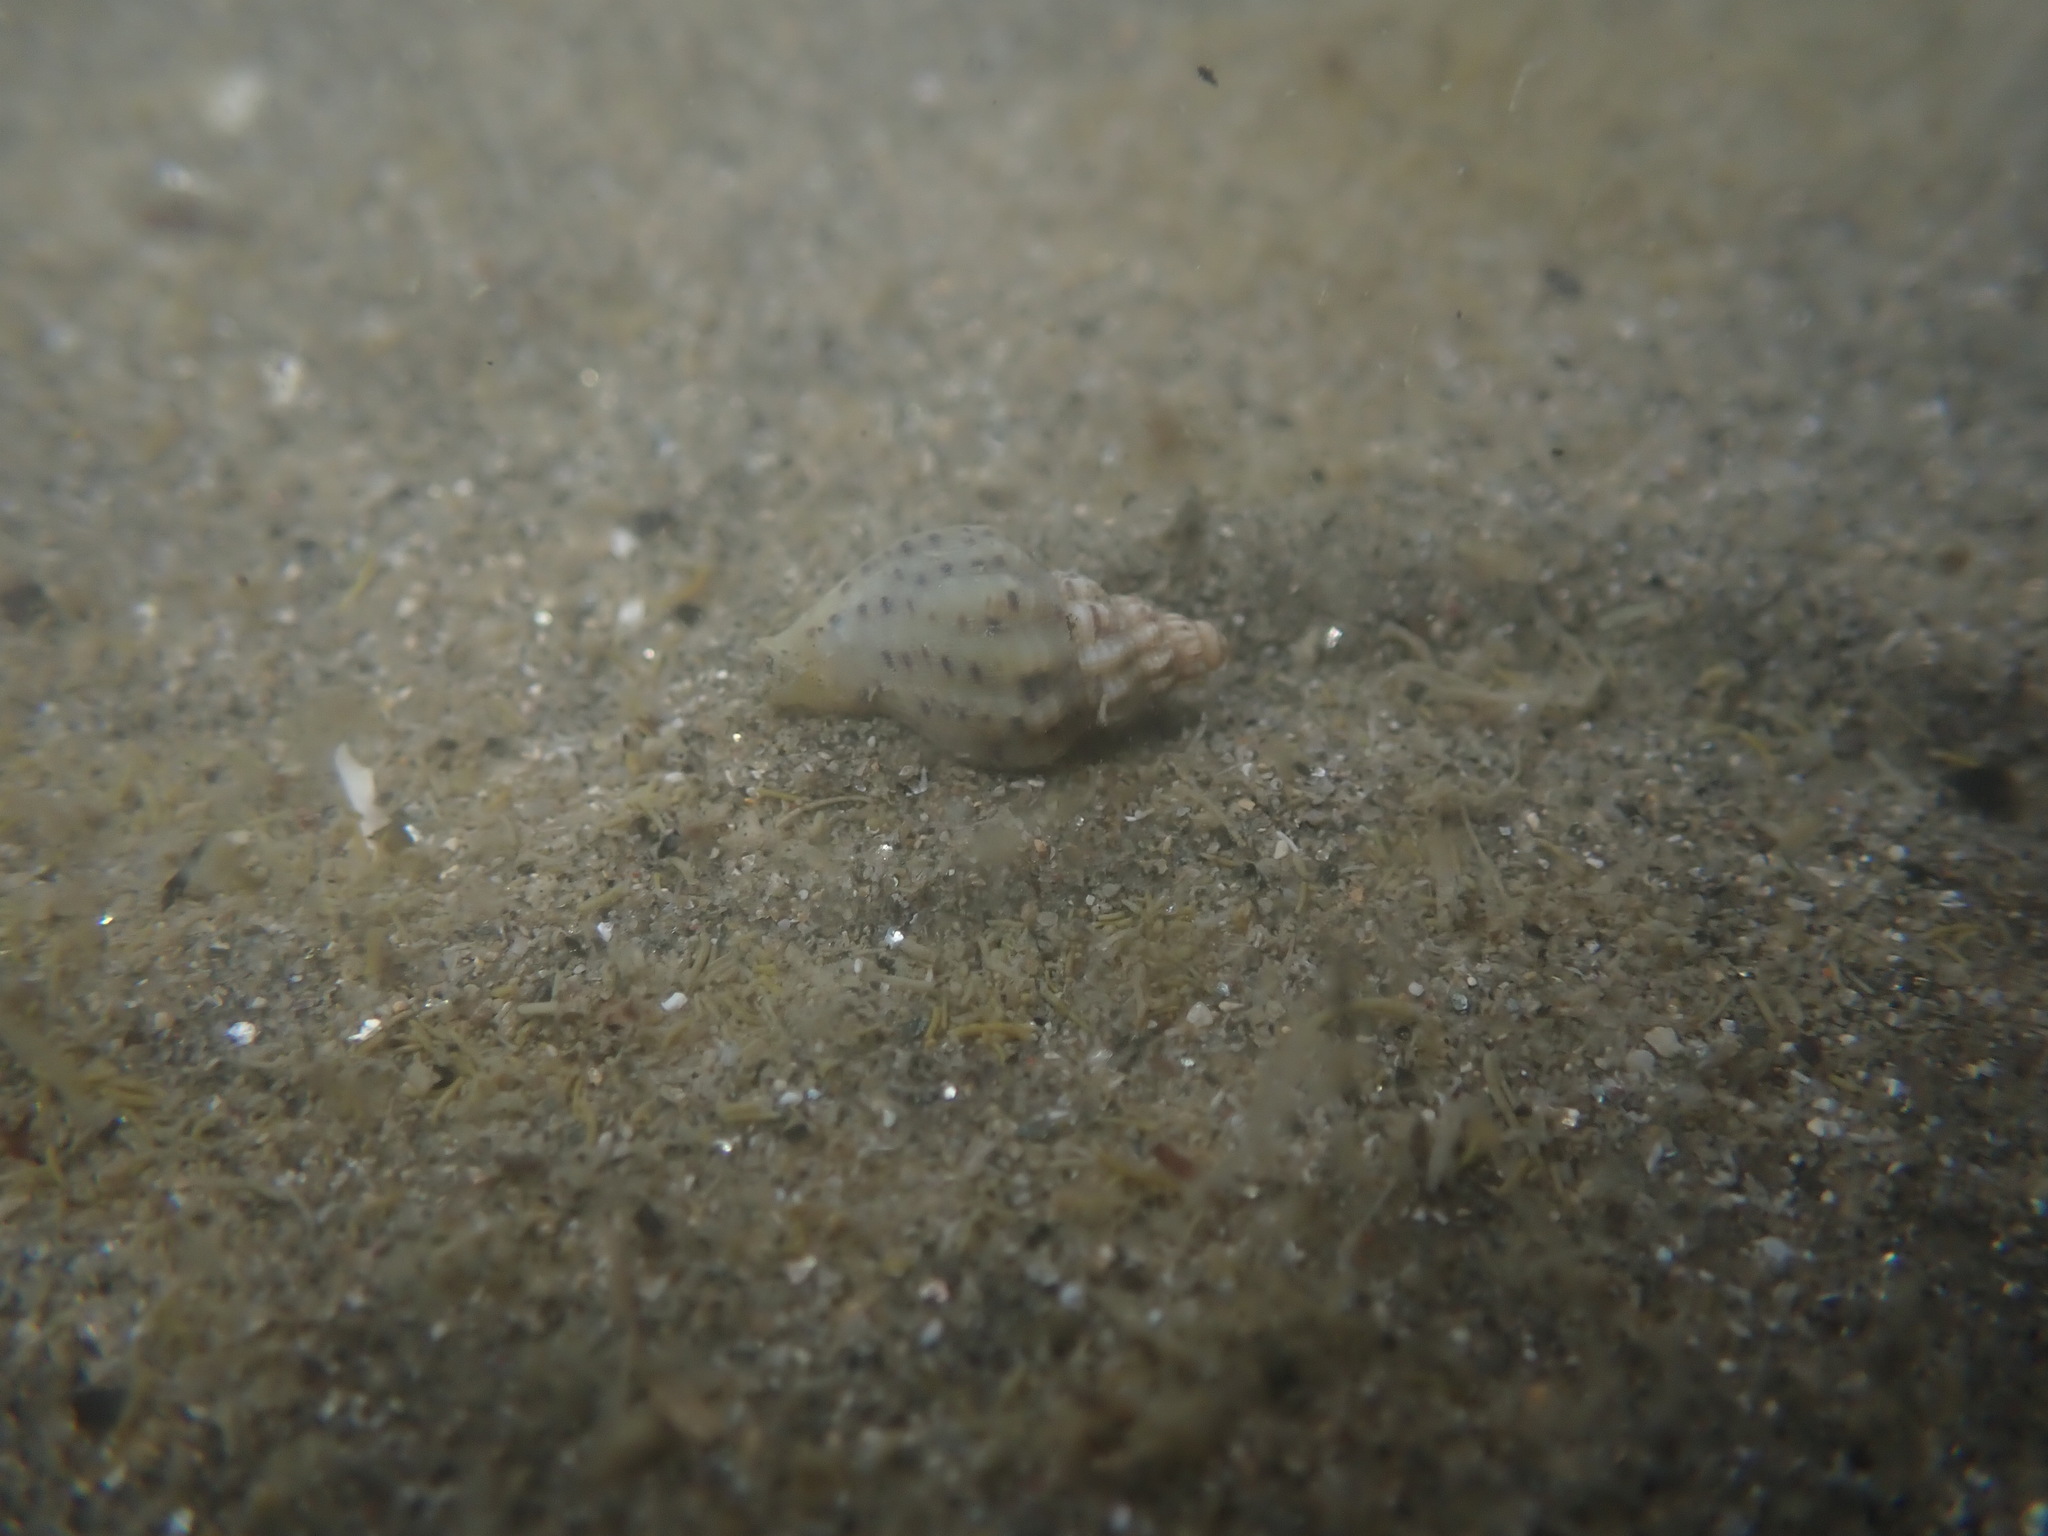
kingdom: Animalia
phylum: Mollusca
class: Gastropoda
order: Neogastropoda
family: Cominellidae
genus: Cominella
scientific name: Cominella adspersa
